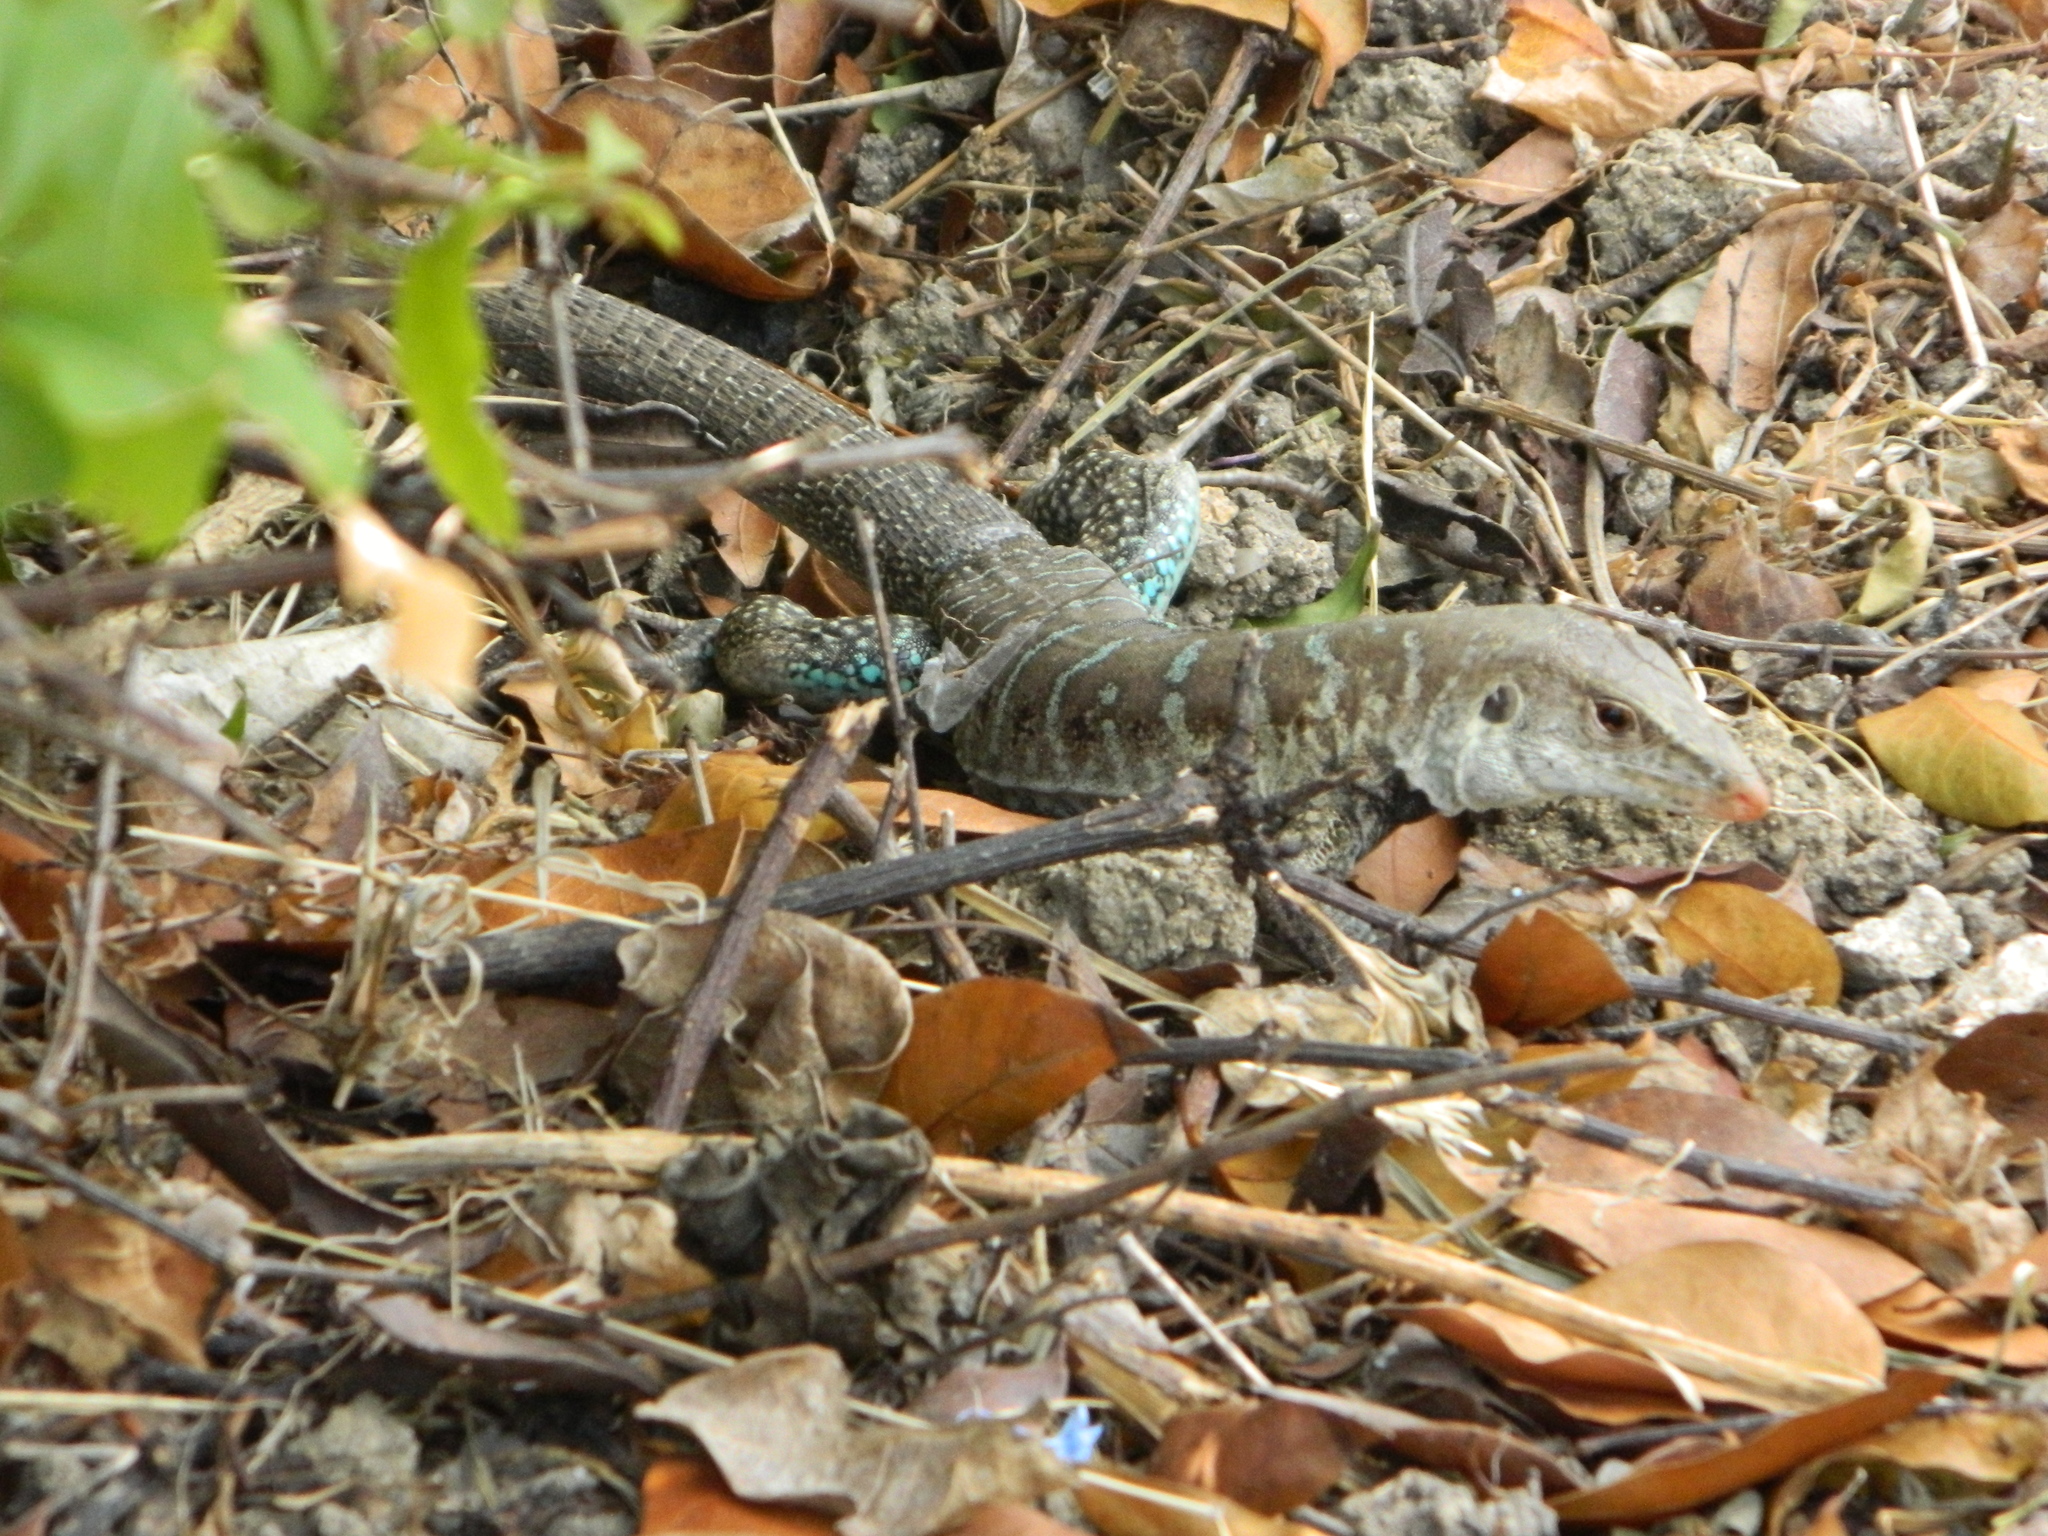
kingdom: Animalia
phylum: Chordata
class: Squamata
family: Teiidae
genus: Pholidoscelis
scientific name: Pholidoscelis griswoldi
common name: Antiguan ameiva
